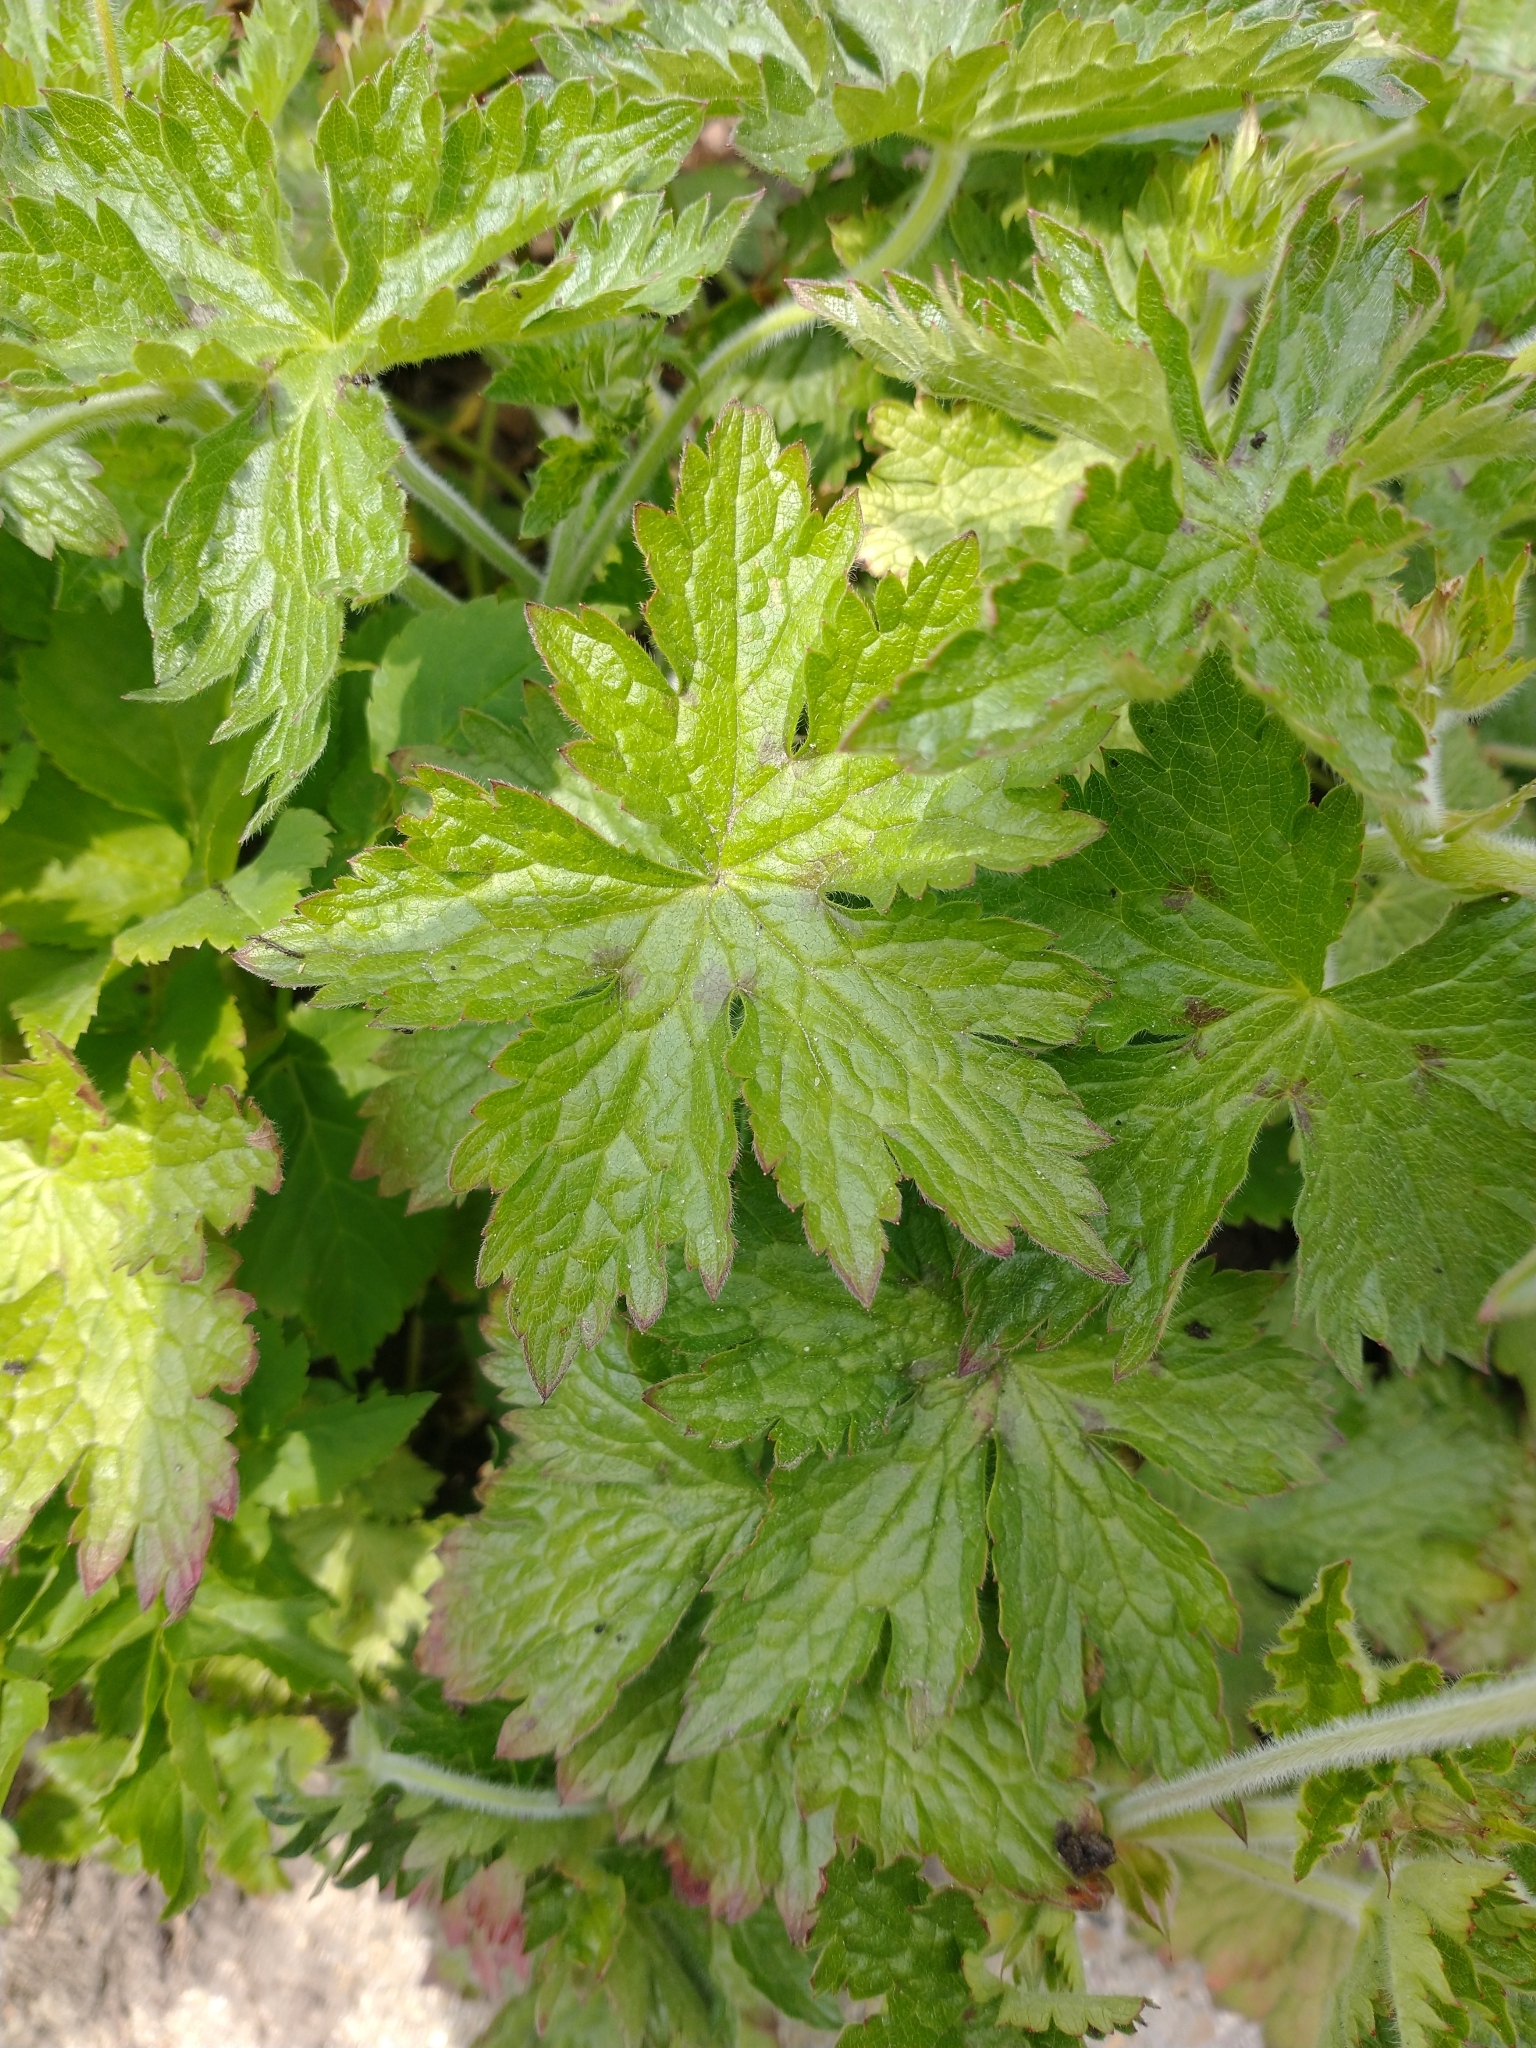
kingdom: Plantae
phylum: Tracheophyta
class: Magnoliopsida
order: Geraniales
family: Geraniaceae
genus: Geranium
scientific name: Geranium oxonianum
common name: Druce's crane's-bill
